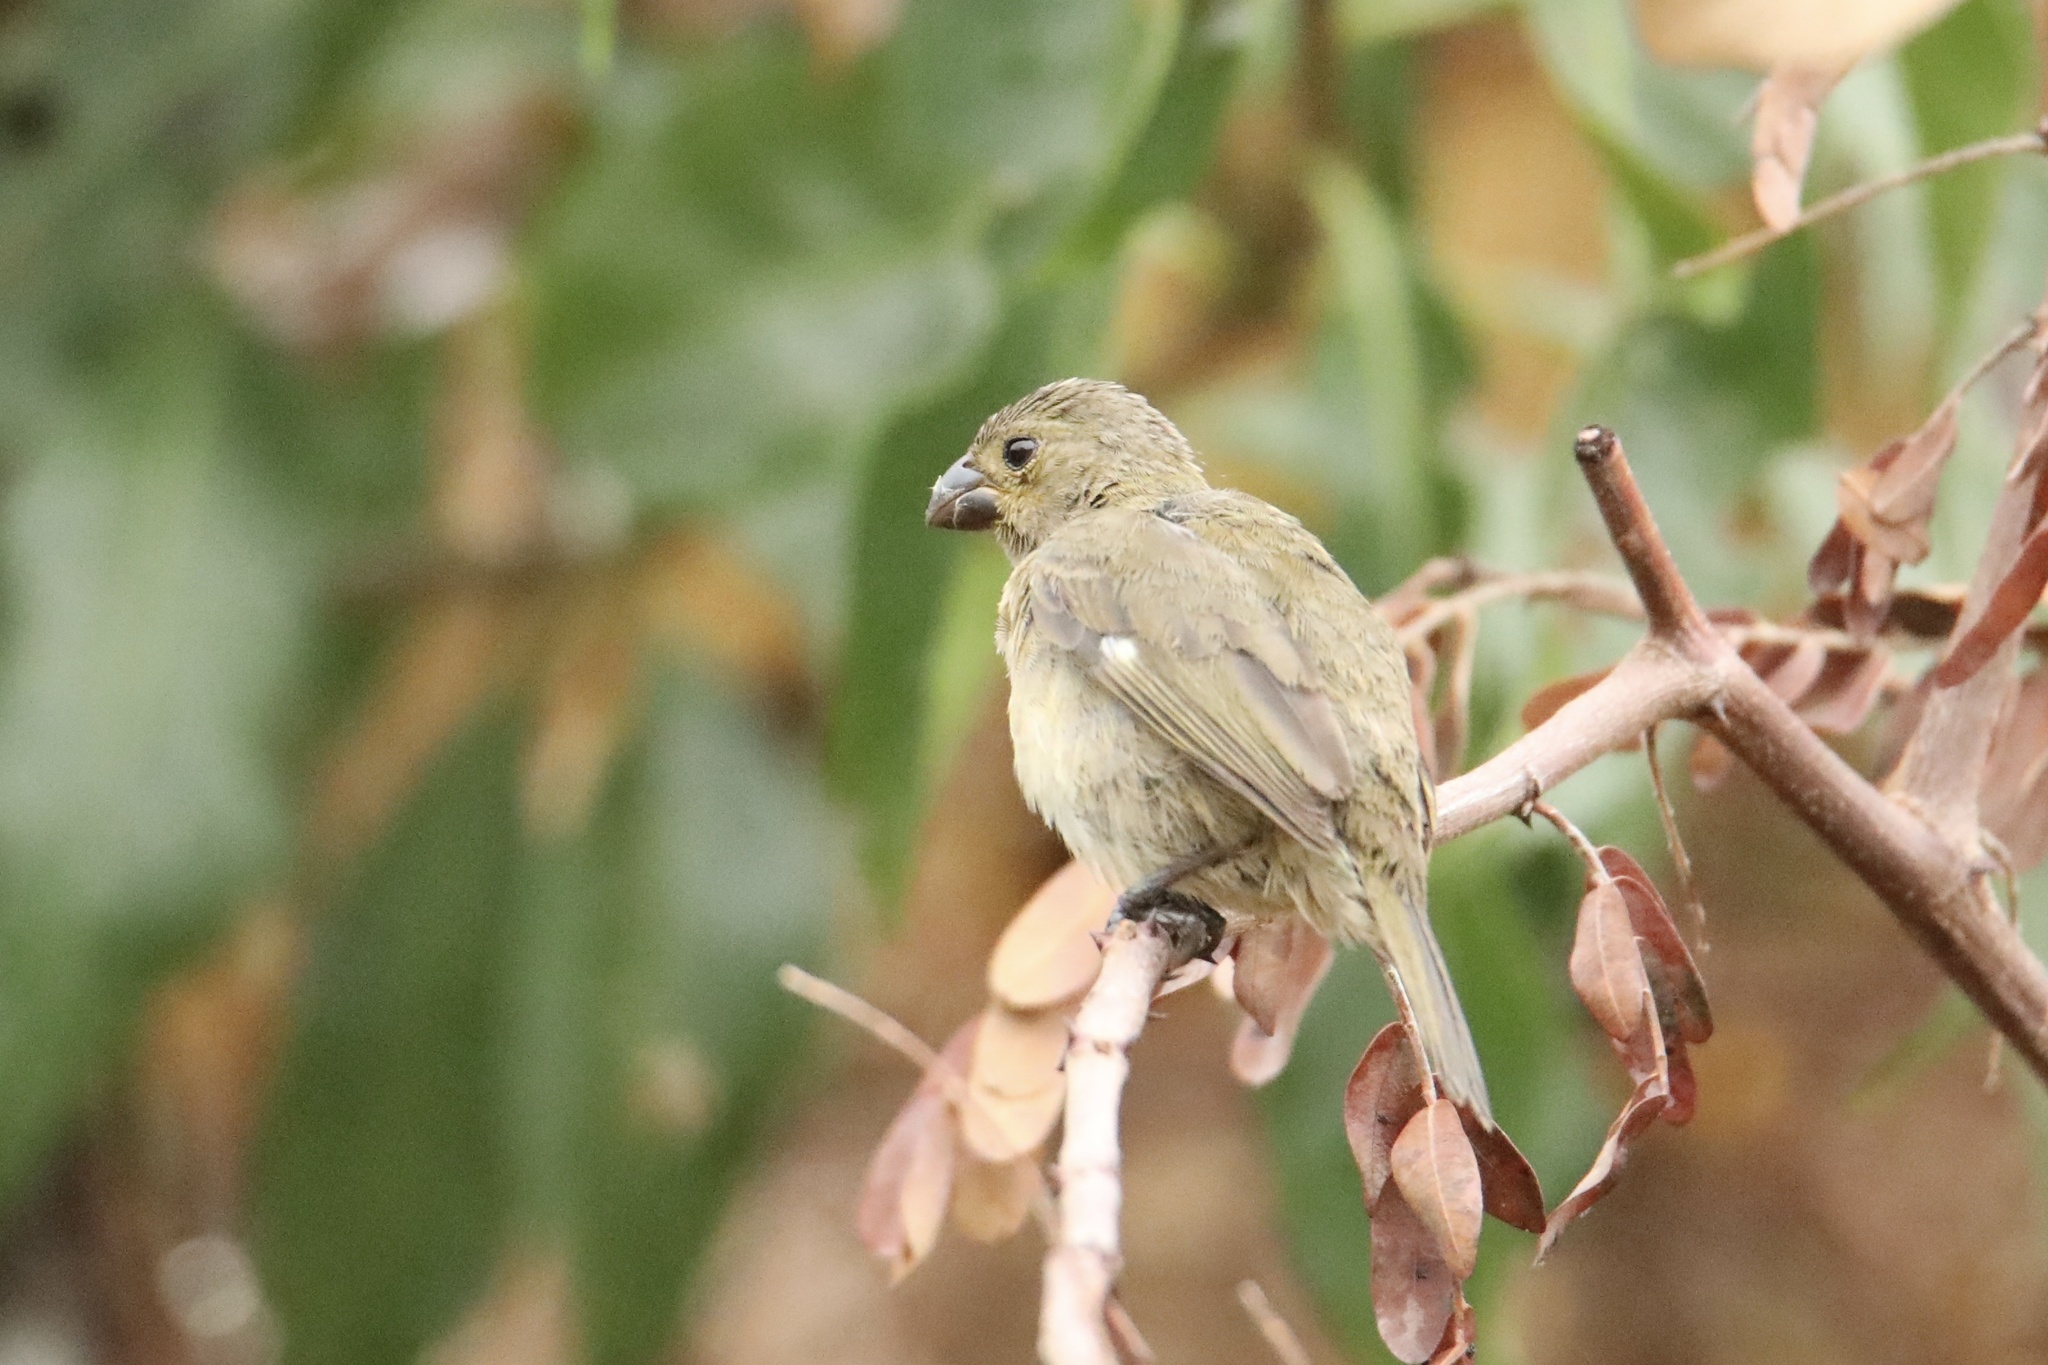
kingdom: Animalia
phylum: Chordata
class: Aves
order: Passeriformes
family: Thraupidae
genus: Sporophila
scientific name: Sporophila corvina
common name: Variable seedeater
